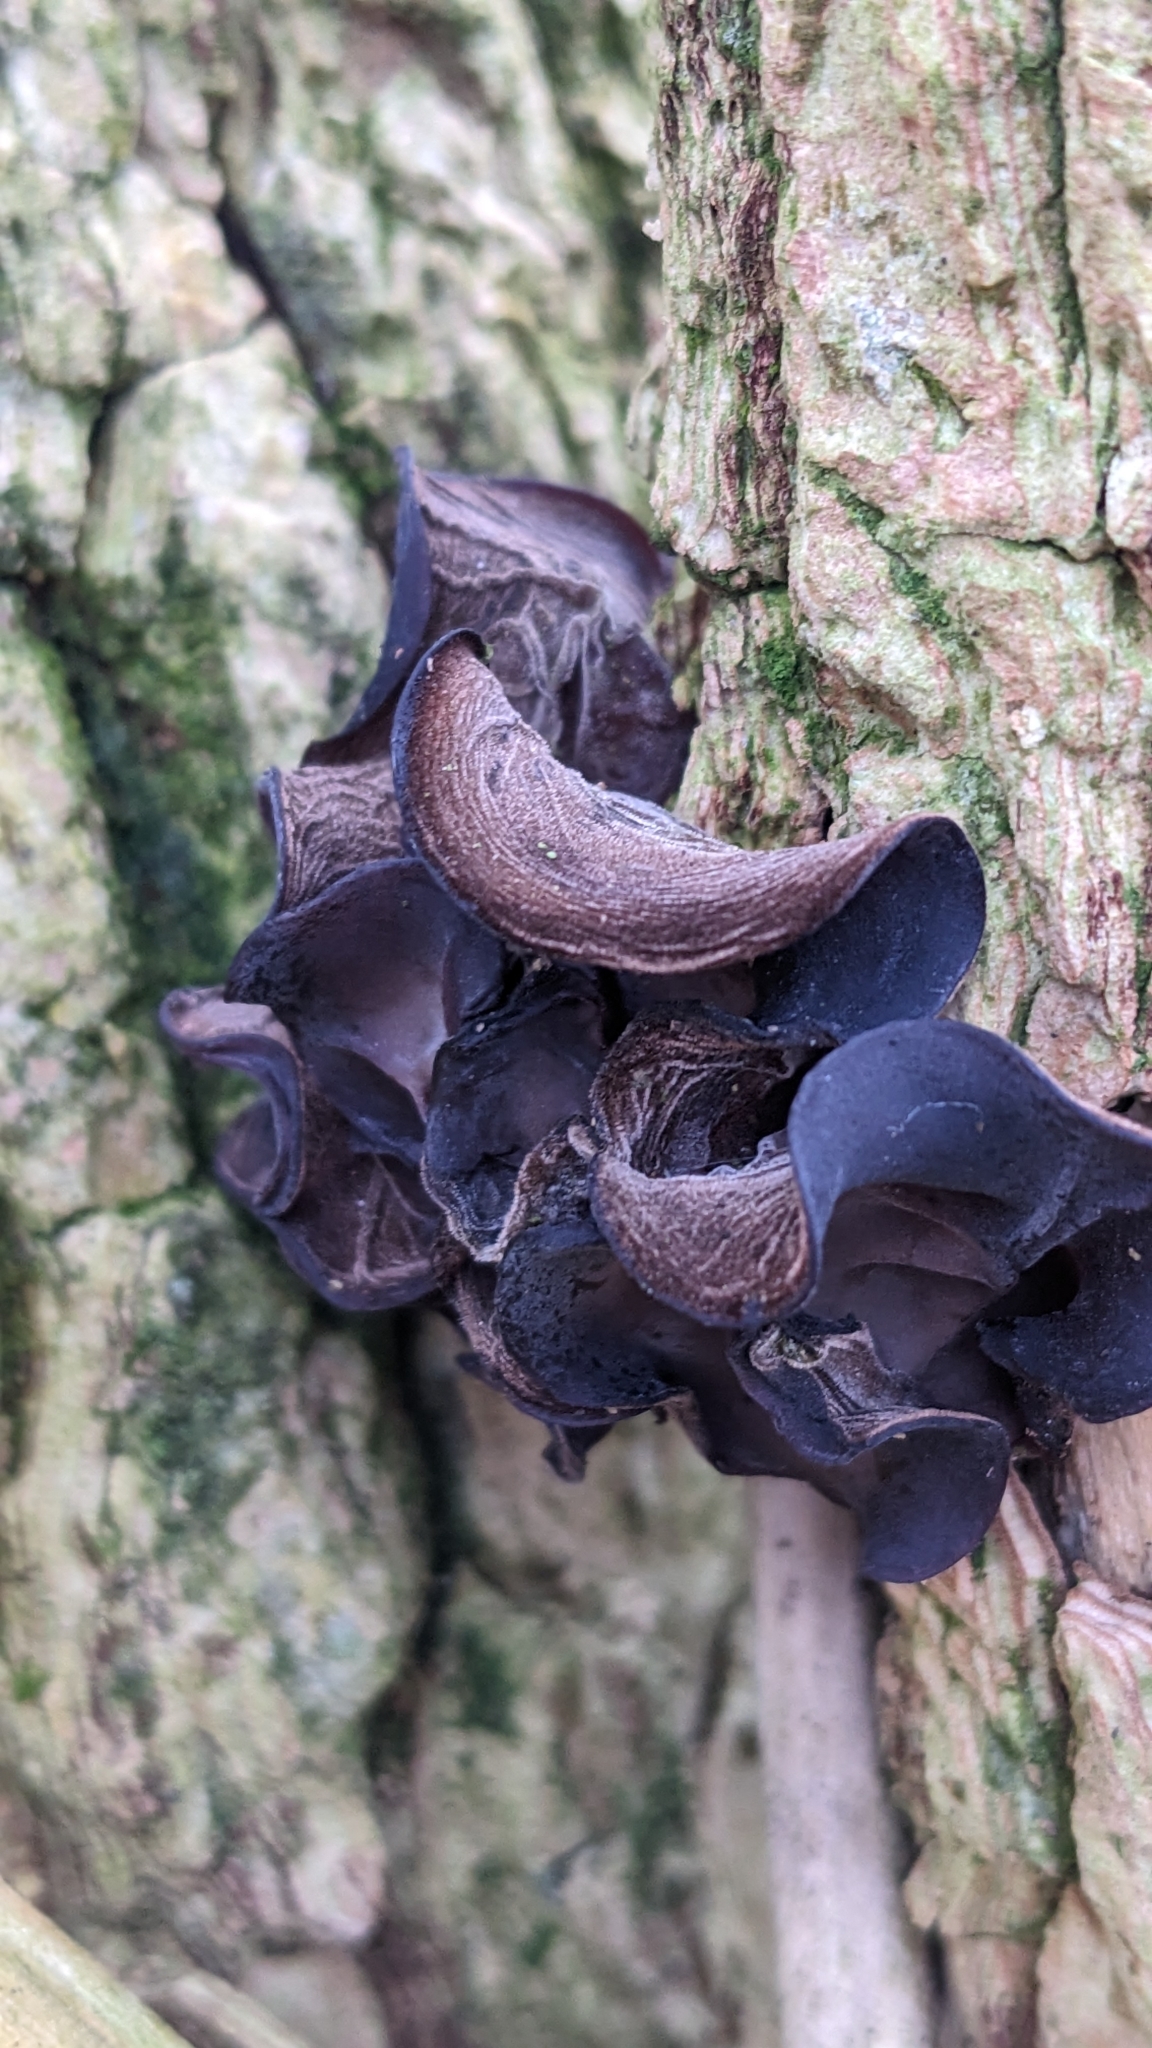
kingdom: Fungi
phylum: Basidiomycota
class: Agaricomycetes
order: Auriculariales
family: Auriculariaceae
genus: Auricularia
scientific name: Auricularia auricula-judae
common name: Jelly ear
